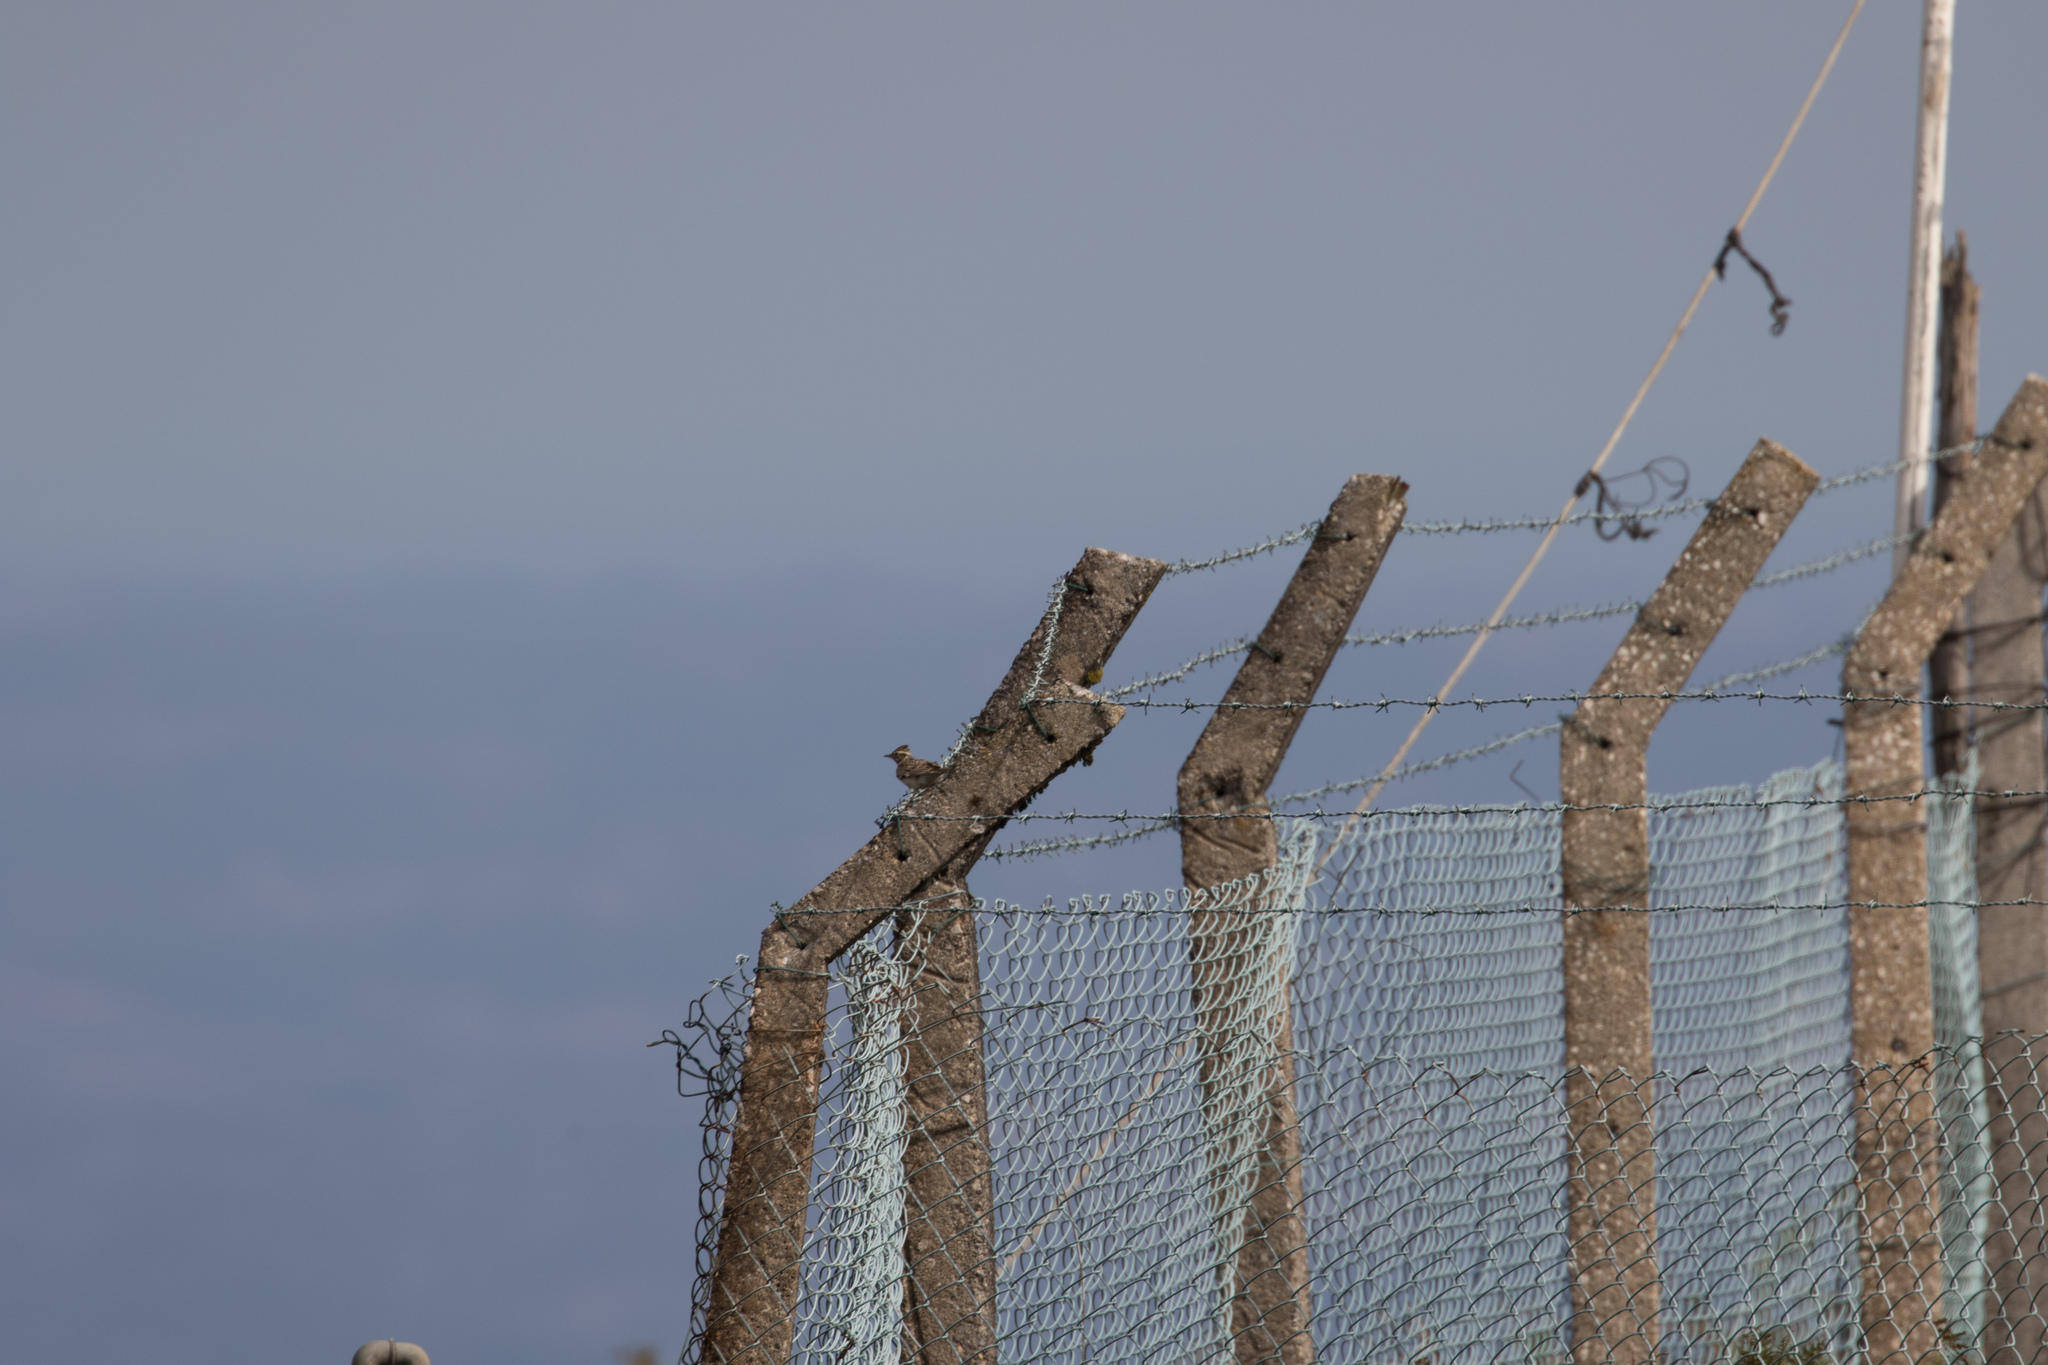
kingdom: Animalia
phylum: Chordata
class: Aves
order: Passeriformes
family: Alaudidae
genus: Lullula
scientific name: Lullula arborea
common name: Woodlark
